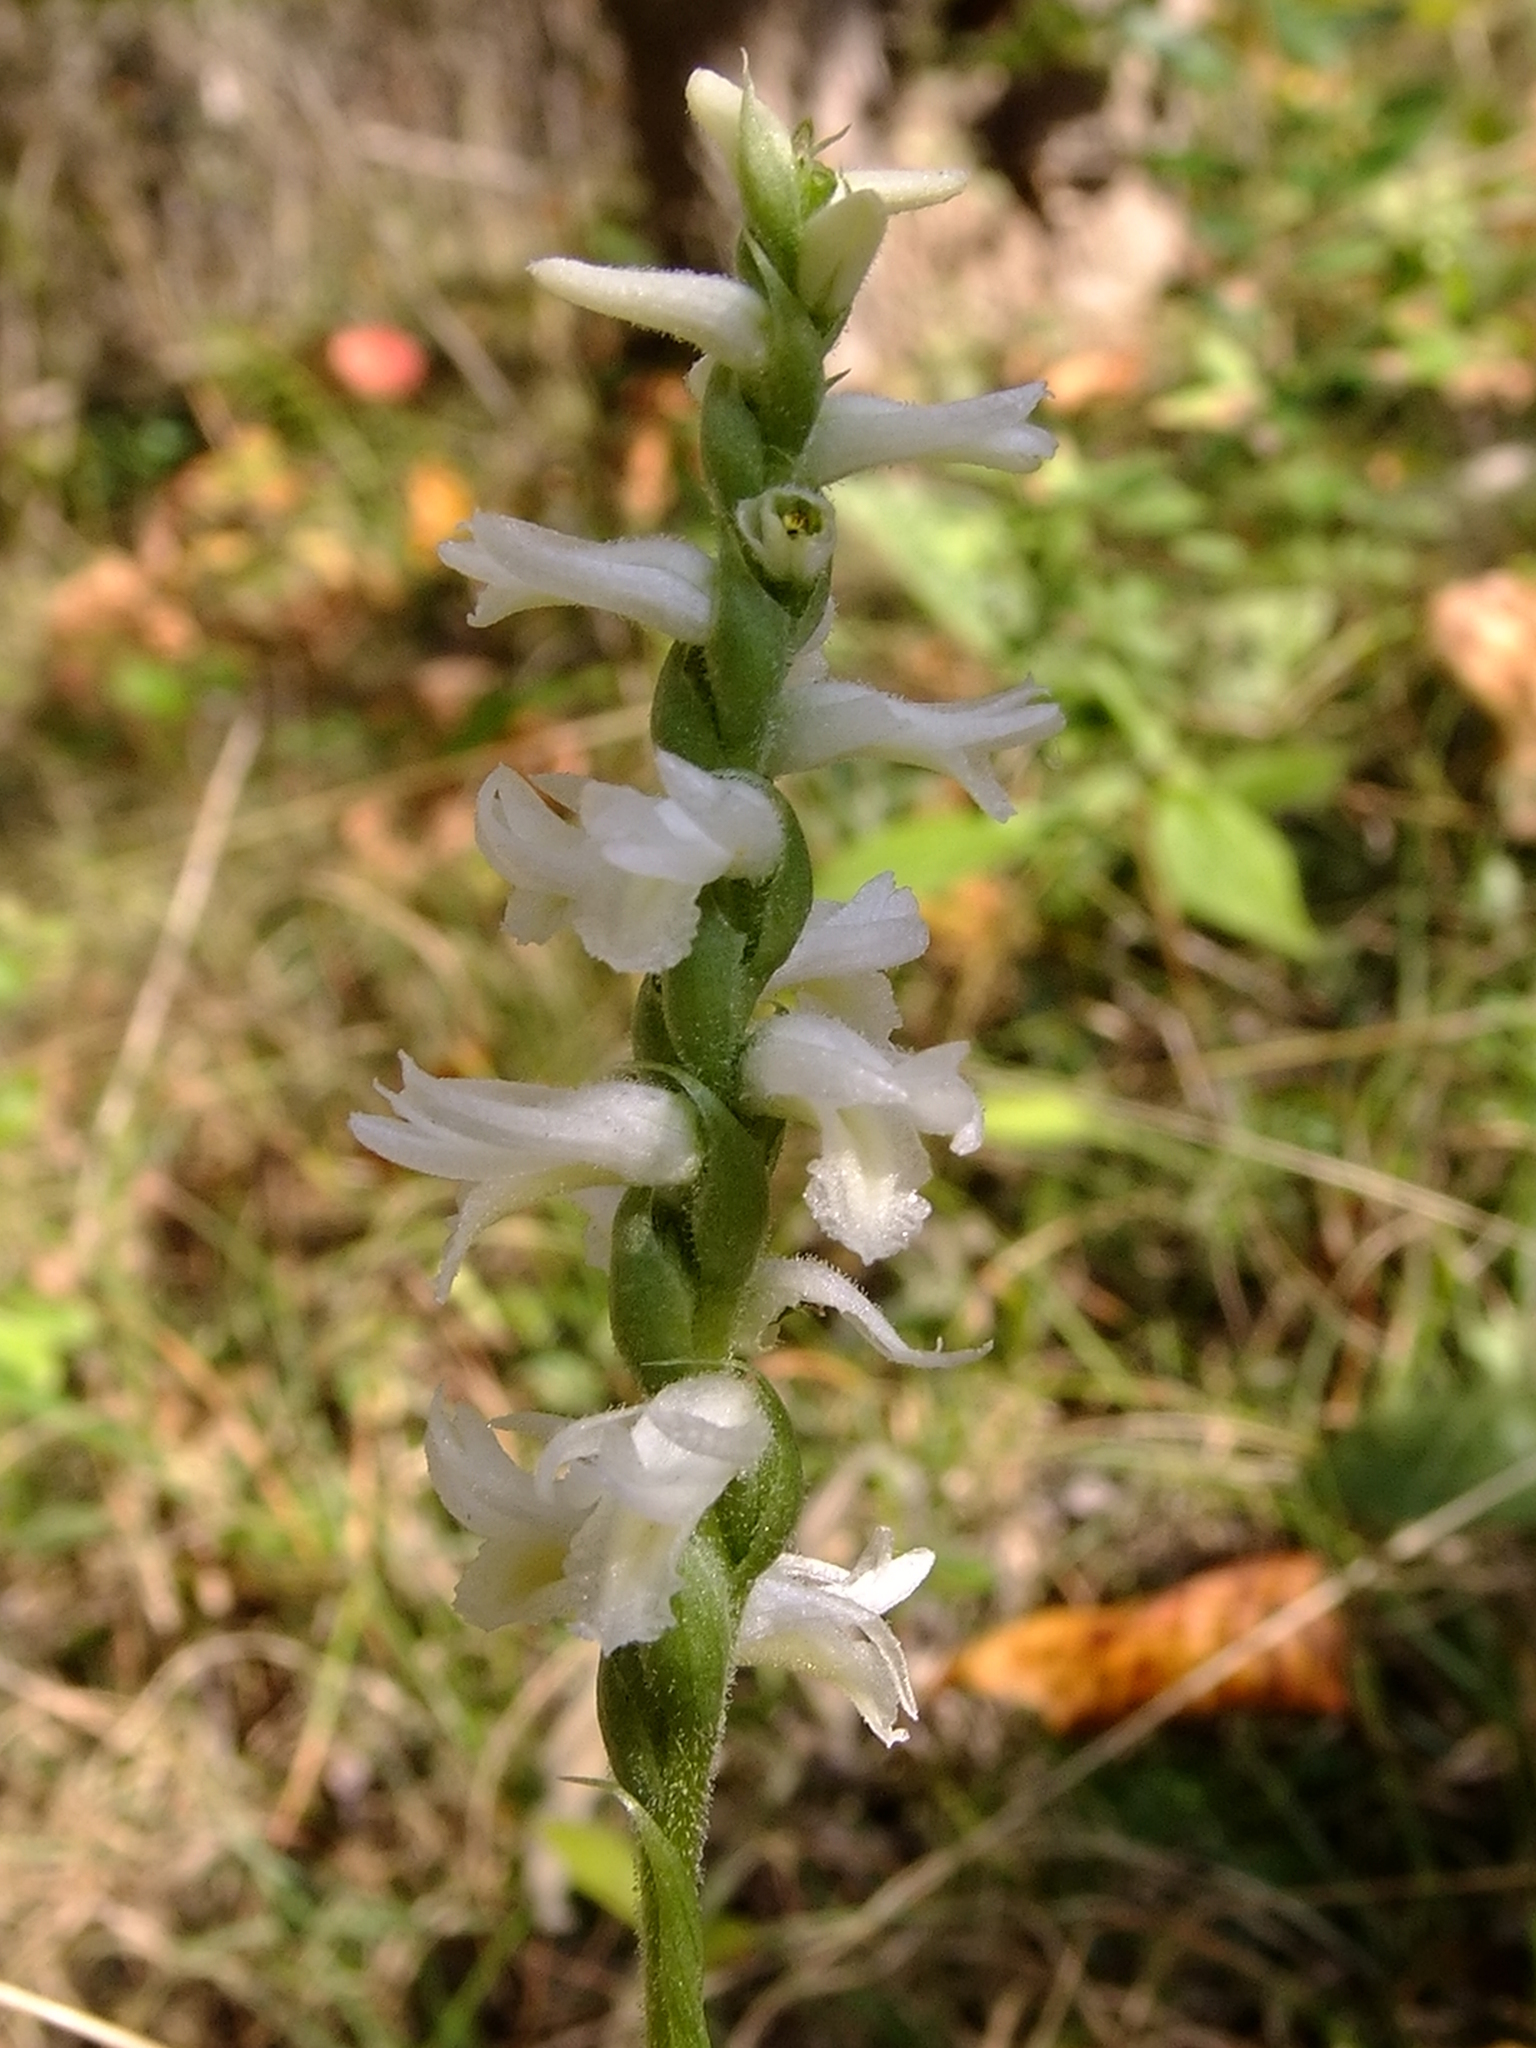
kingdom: Plantae
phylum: Tracheophyta
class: Liliopsida
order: Asparagales
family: Orchidaceae
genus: Spiranthes
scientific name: Spiranthes magnicamporum
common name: Great plains ladies'-tresses
